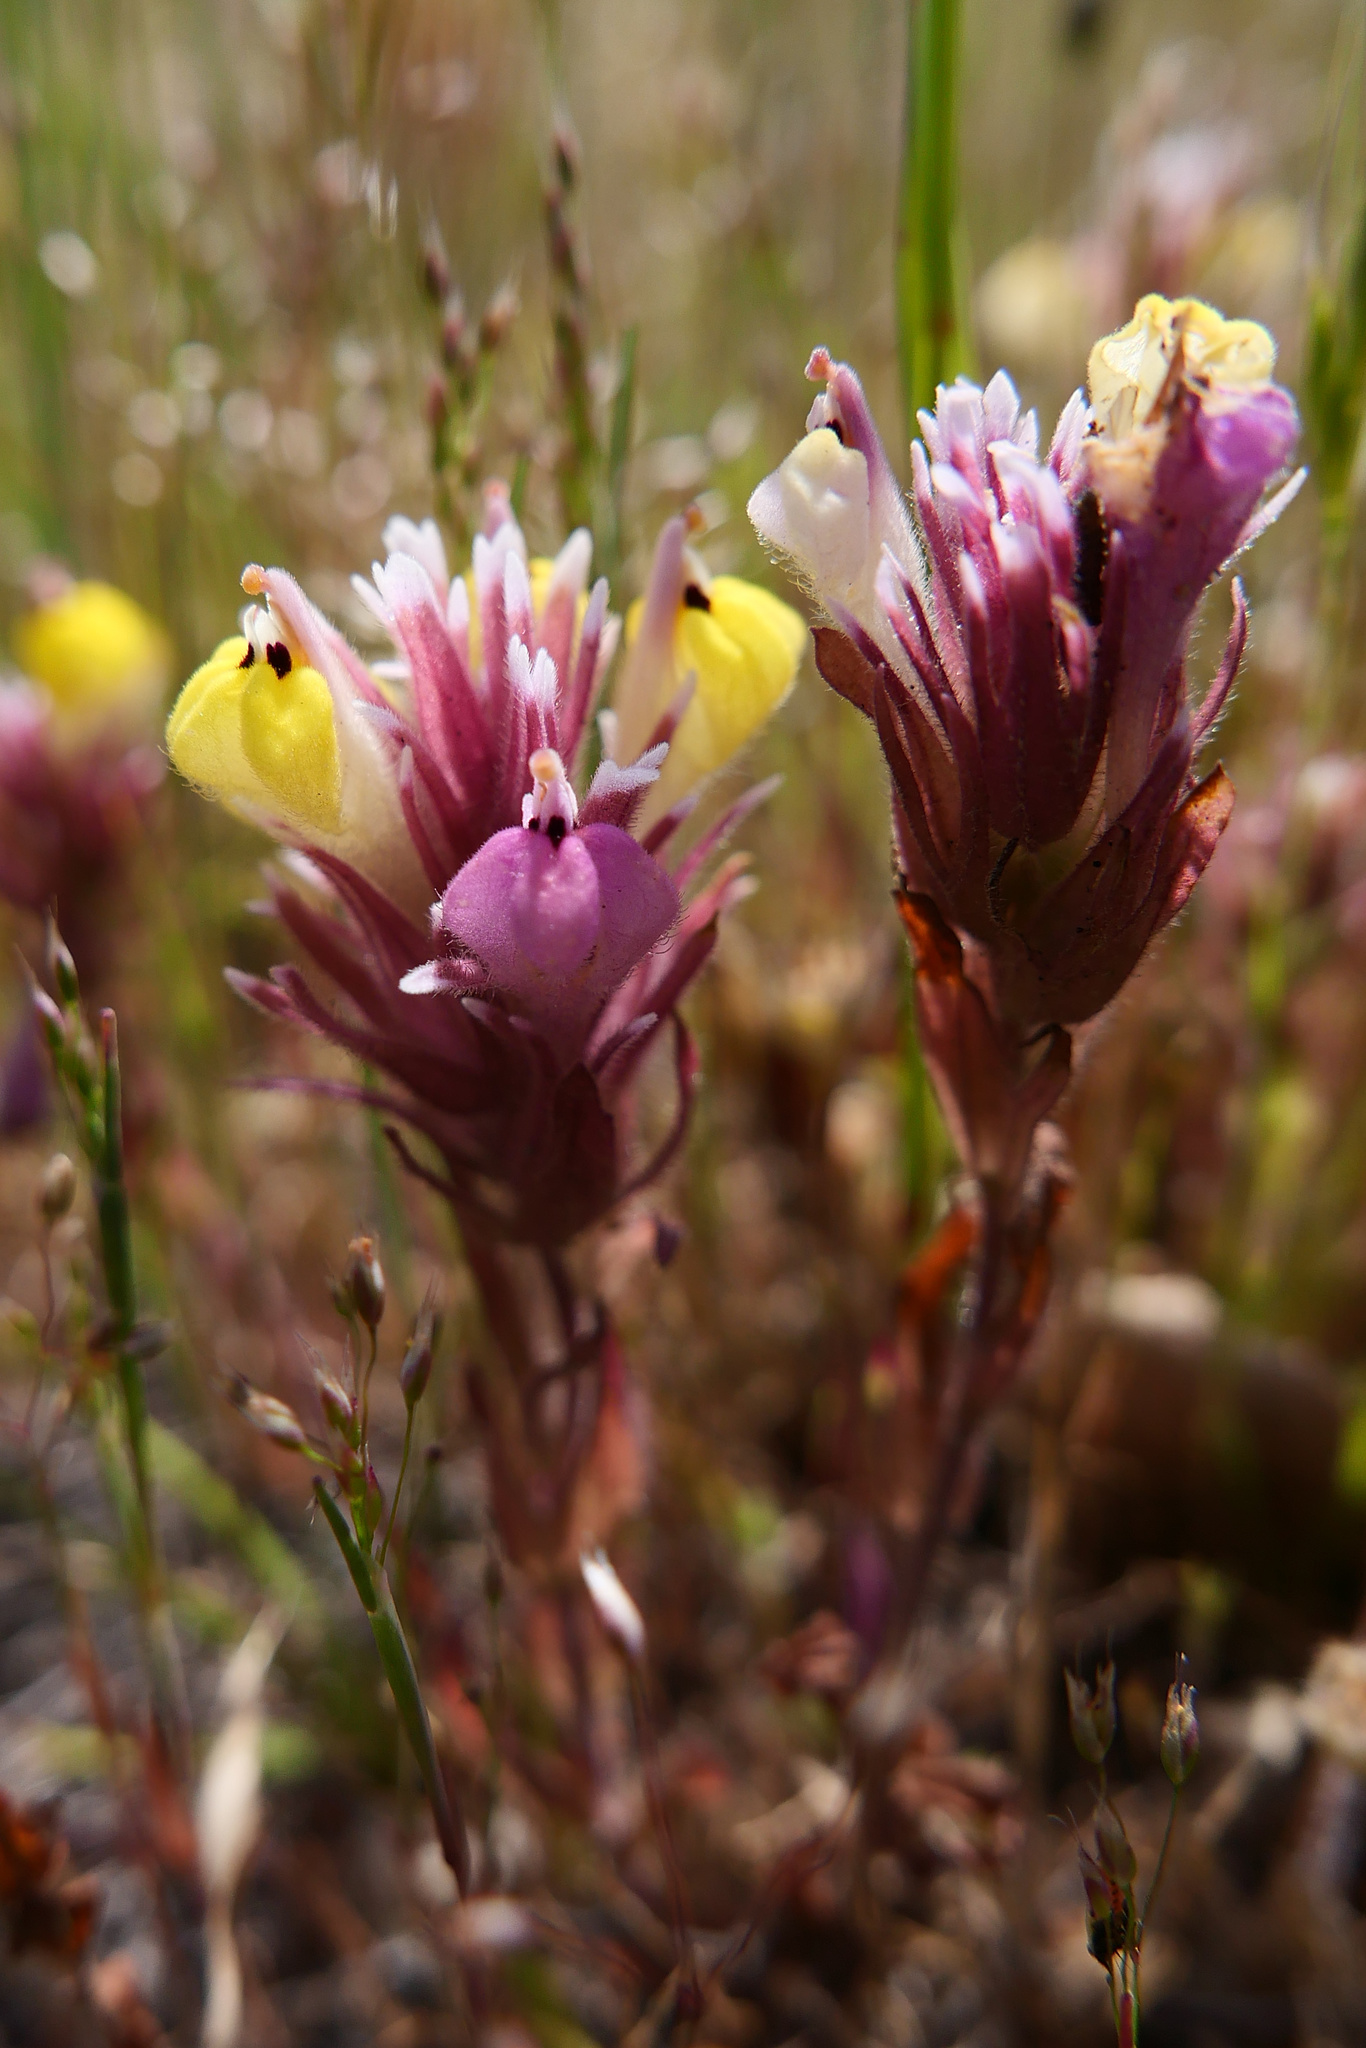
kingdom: Plantae
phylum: Tracheophyta
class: Magnoliopsida
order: Lamiales
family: Orobanchaceae
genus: Castilleja
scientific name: Castilleja ambigua
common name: Johnny-nip
